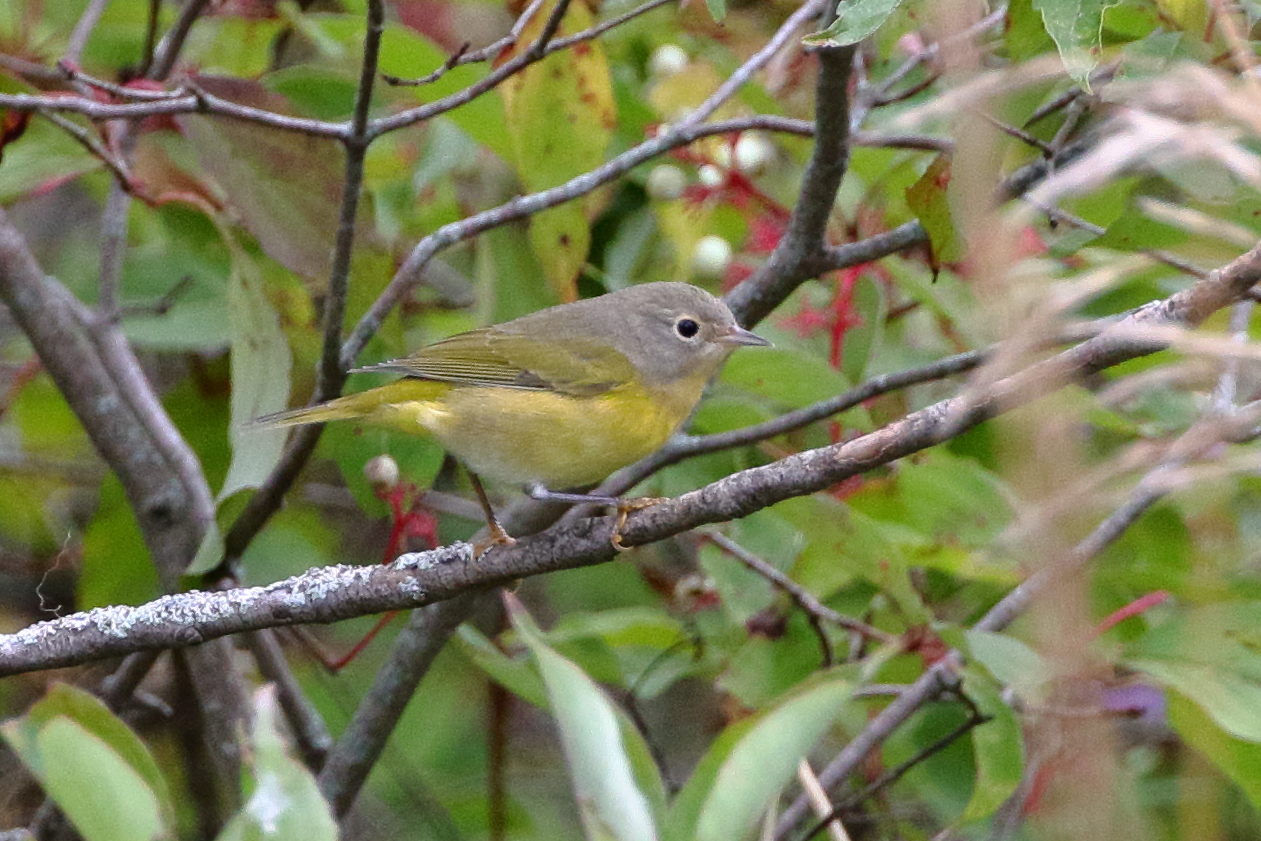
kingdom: Animalia
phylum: Chordata
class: Aves
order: Passeriformes
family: Parulidae
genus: Leiothlypis
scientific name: Leiothlypis ruficapilla
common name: Nashville warbler
